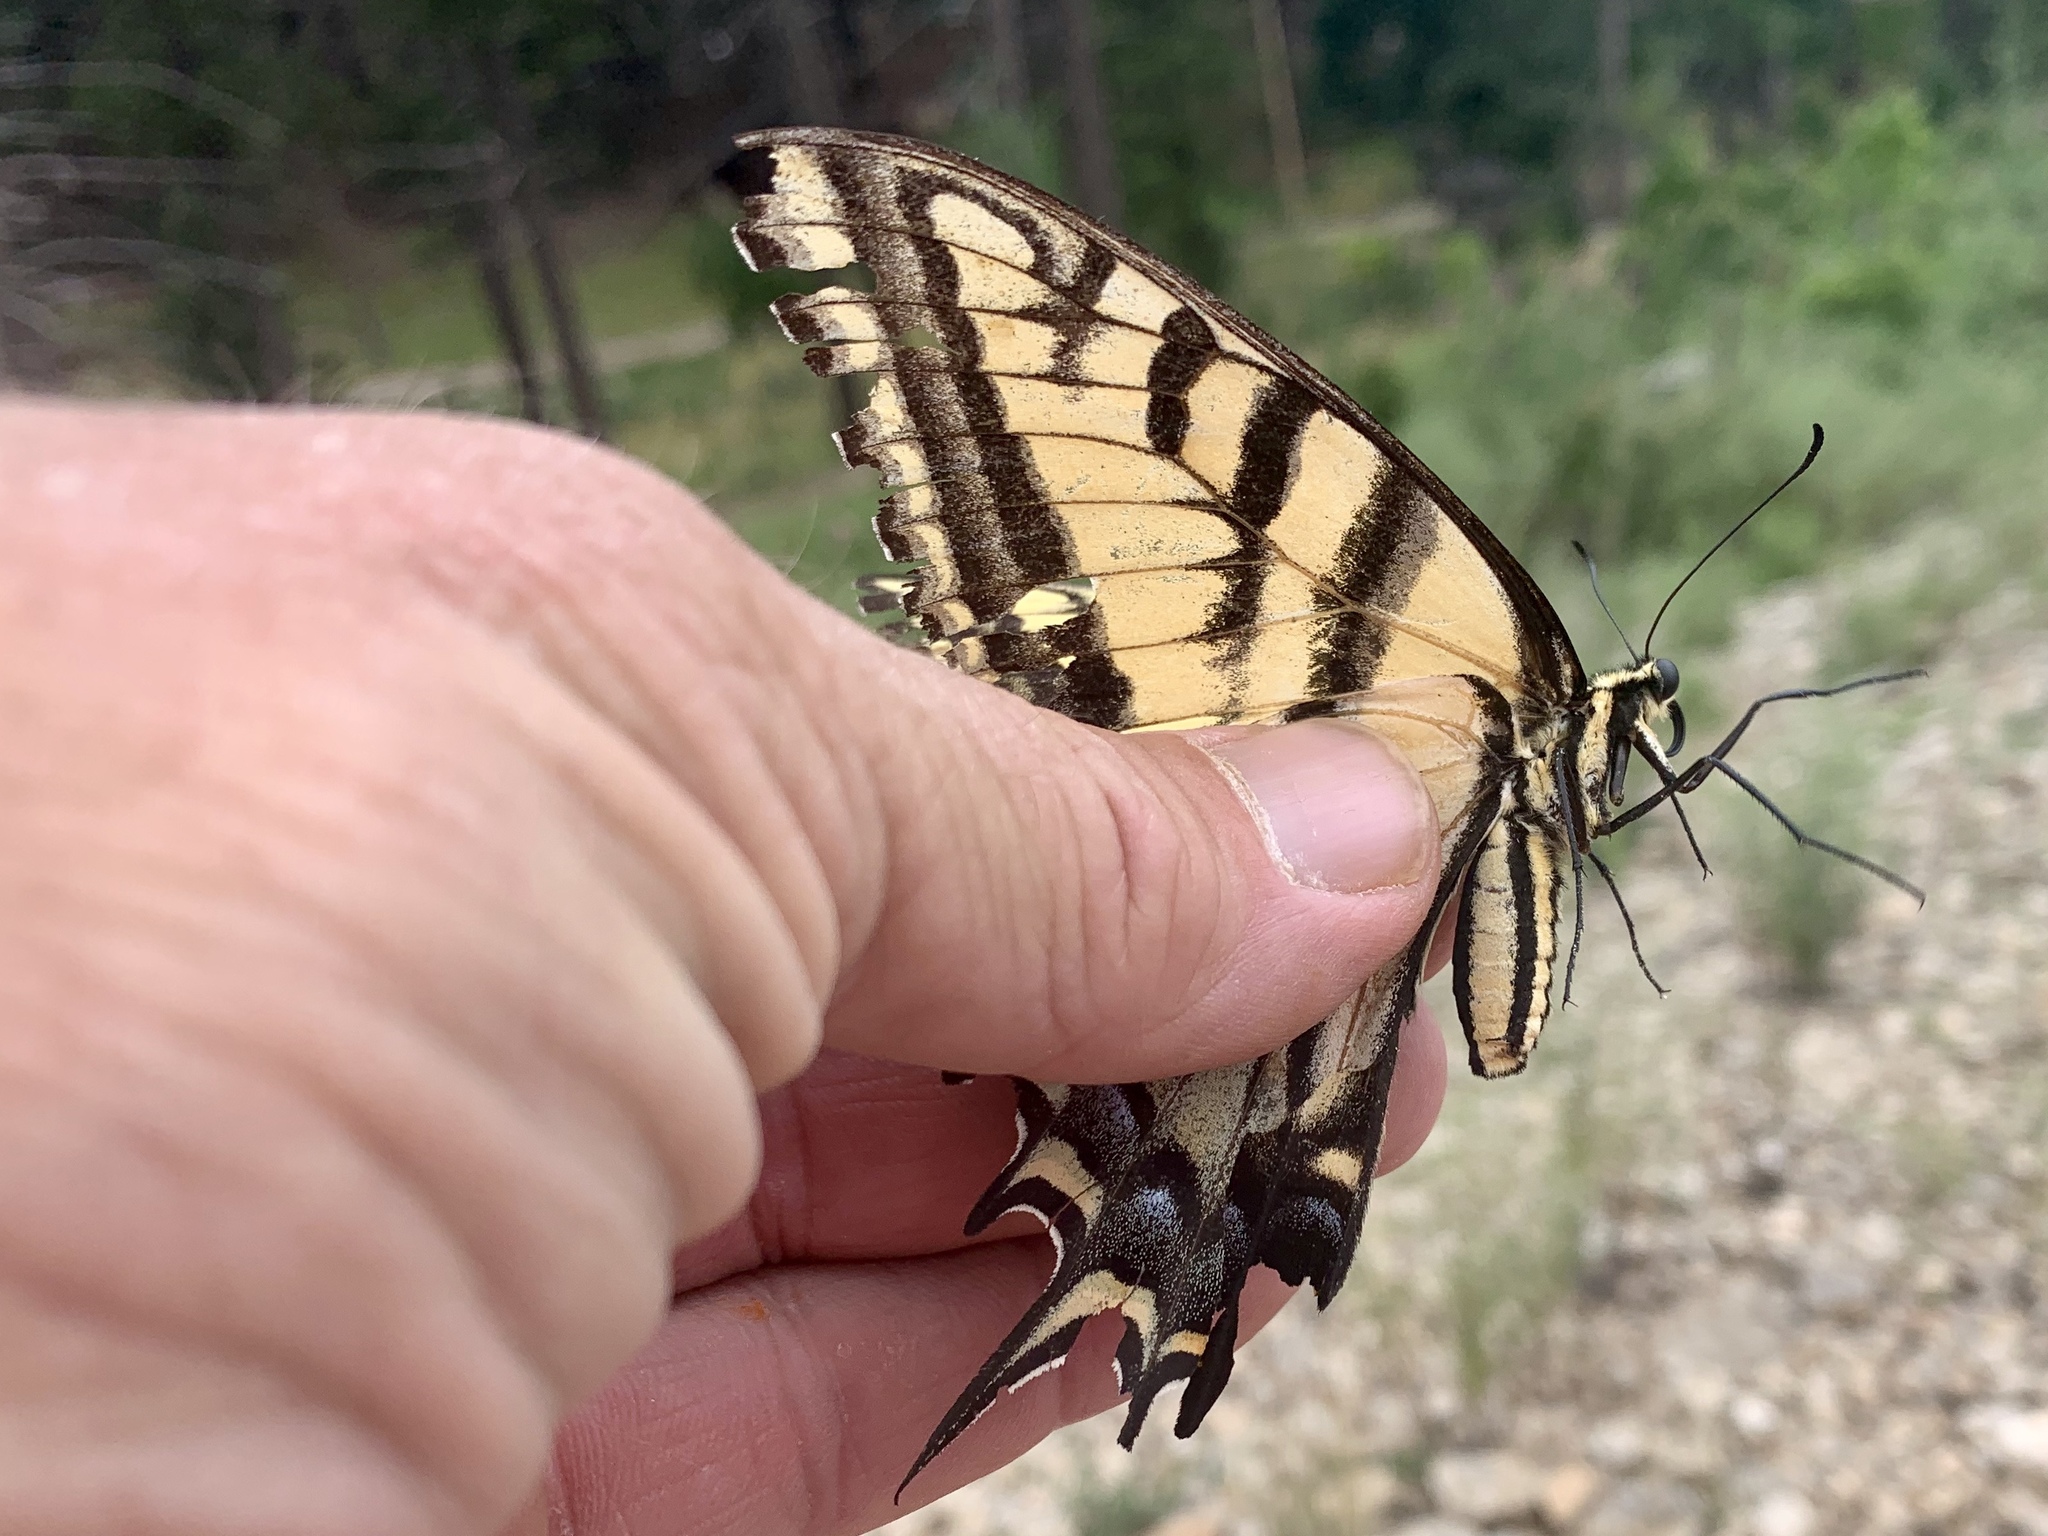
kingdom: Animalia
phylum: Arthropoda
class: Insecta
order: Lepidoptera
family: Papilionidae
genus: Papilio
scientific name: Papilio multicaudata
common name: Two-tailed tiger swallowtail
